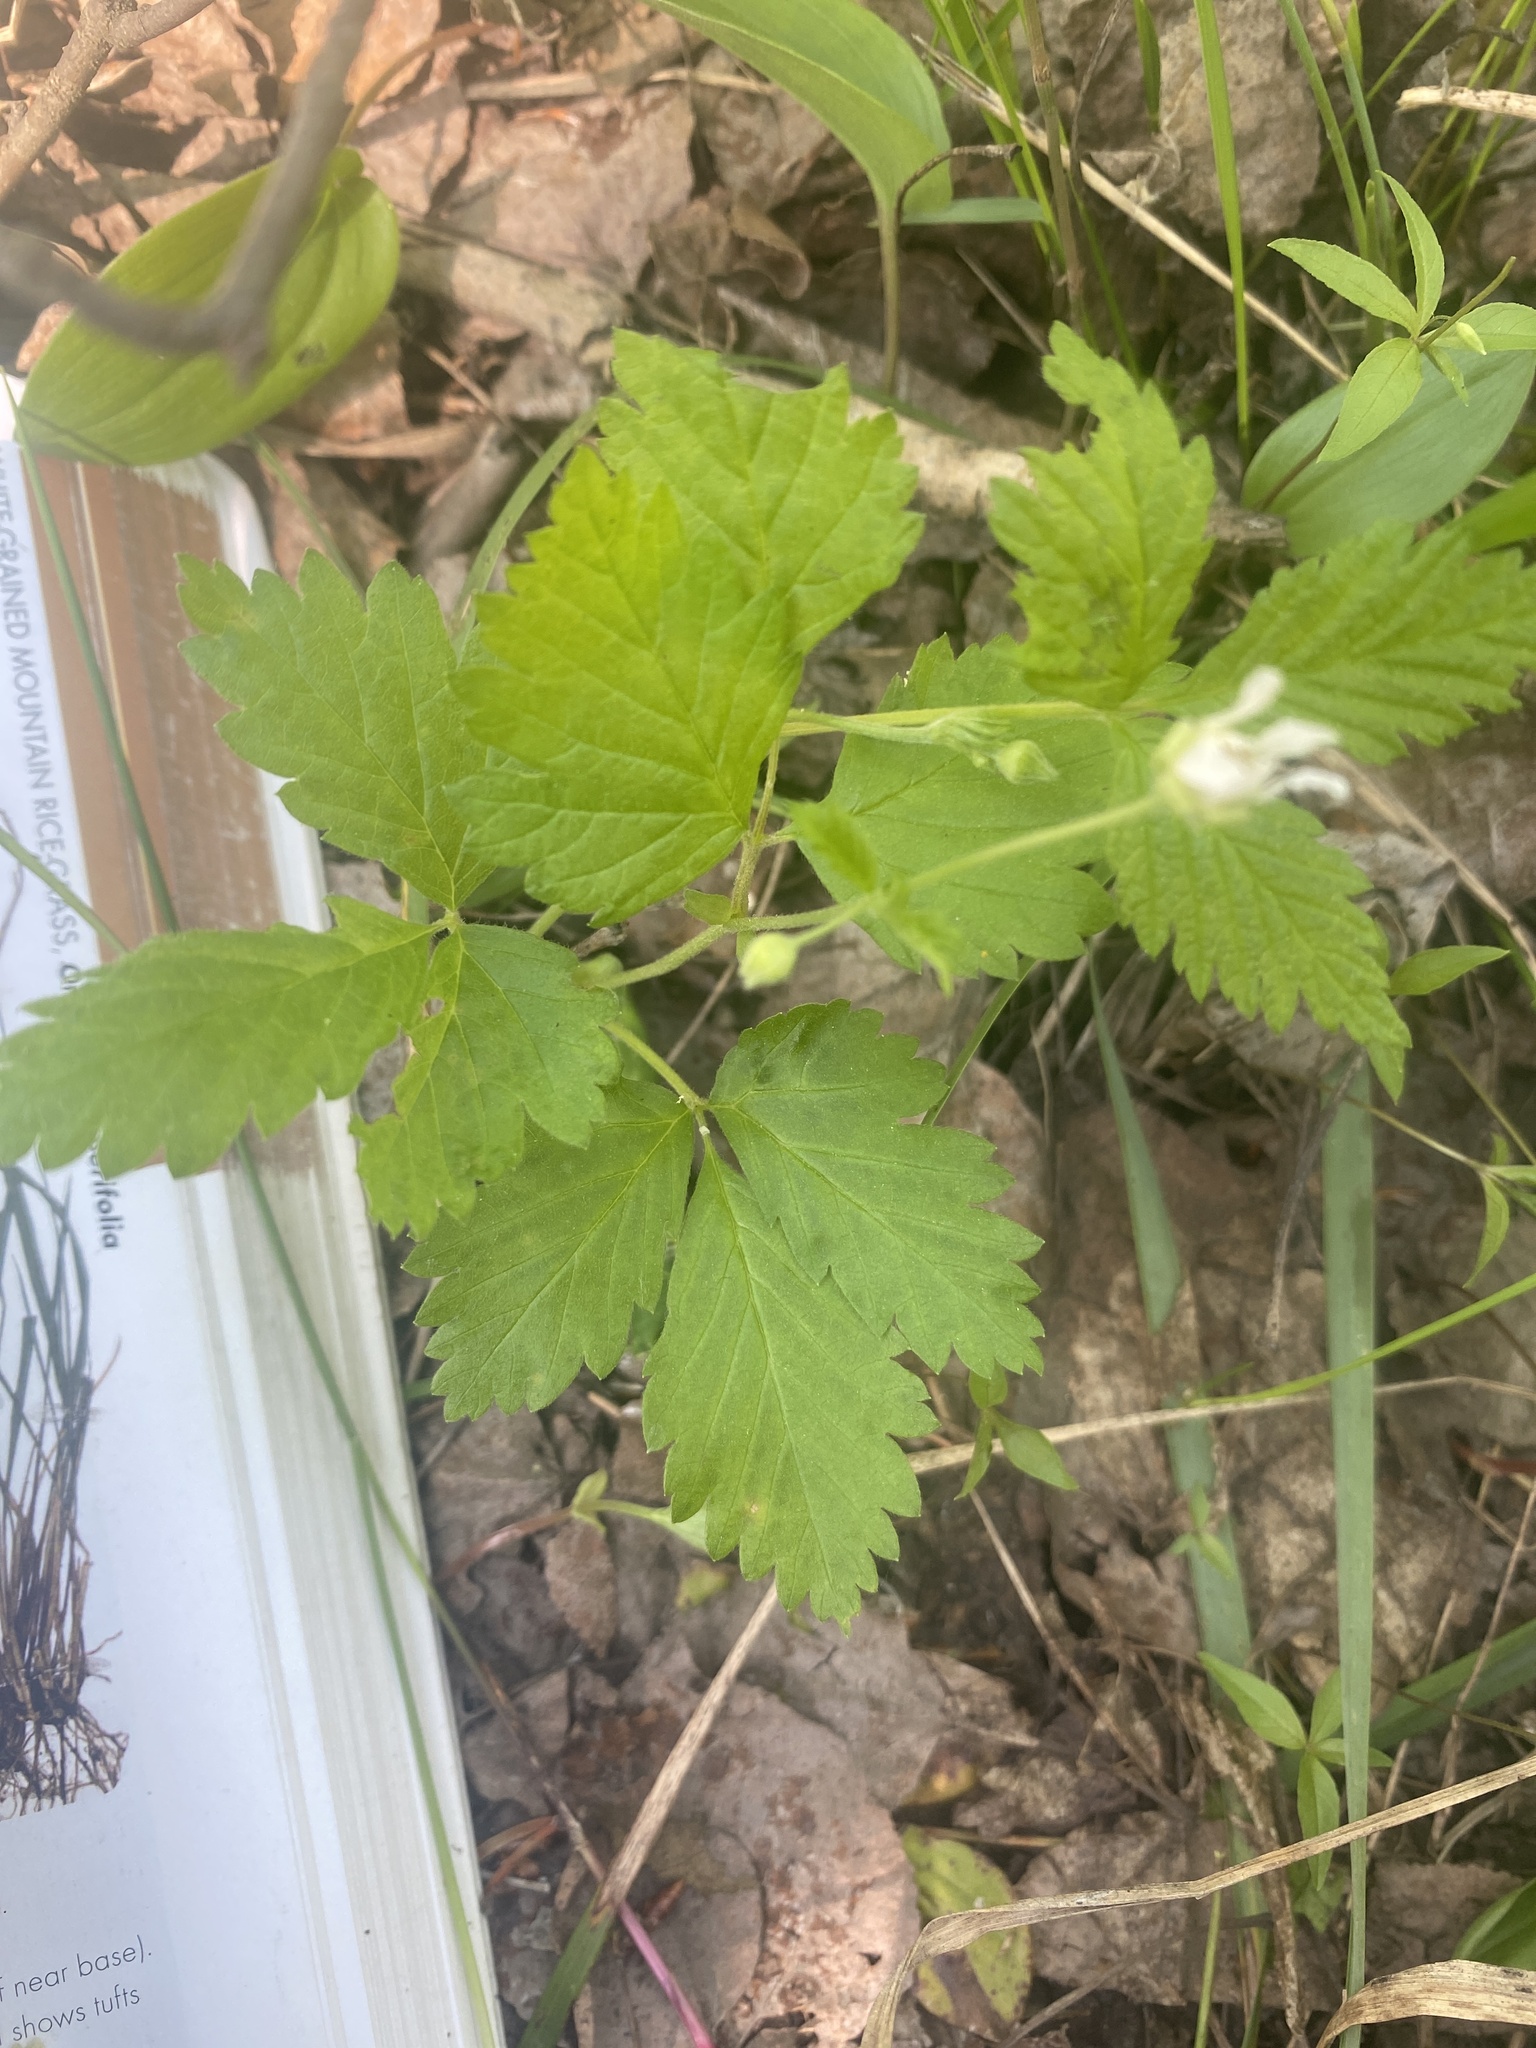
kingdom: Plantae
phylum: Tracheophyta
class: Magnoliopsida
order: Rosales
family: Rosaceae
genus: Rubus
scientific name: Rubus pubescens
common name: Dwarf raspberry
